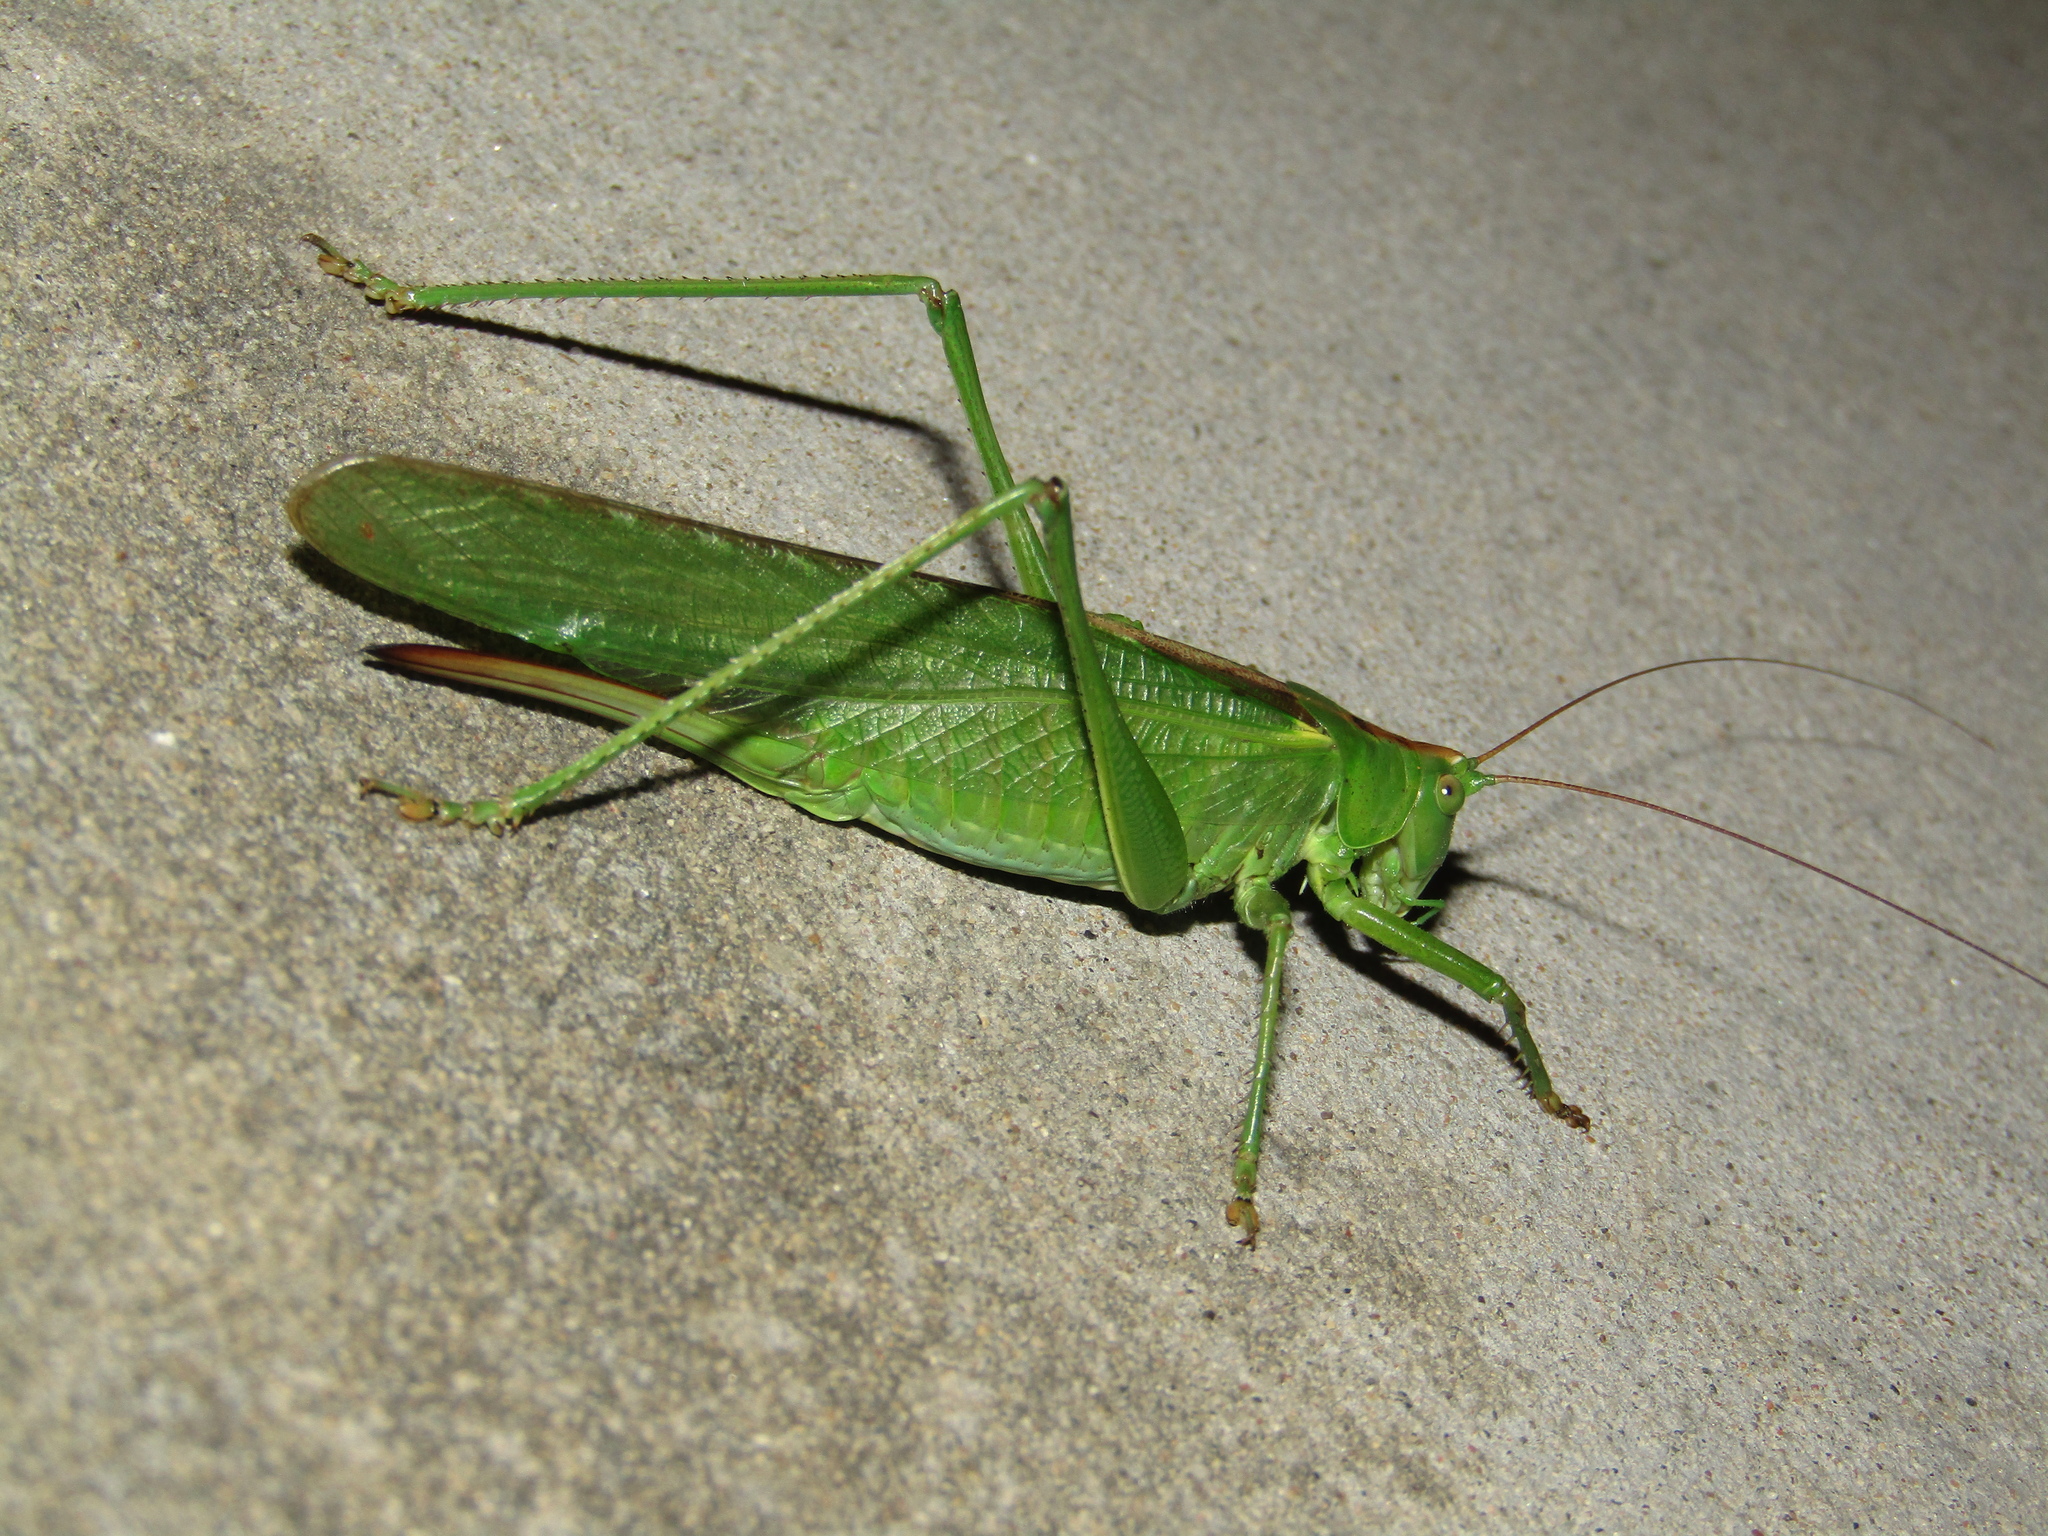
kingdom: Animalia
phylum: Arthropoda
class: Insecta
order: Orthoptera
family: Tettigoniidae
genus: Tettigonia
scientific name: Tettigonia viridissima
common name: Great green bush-cricket
